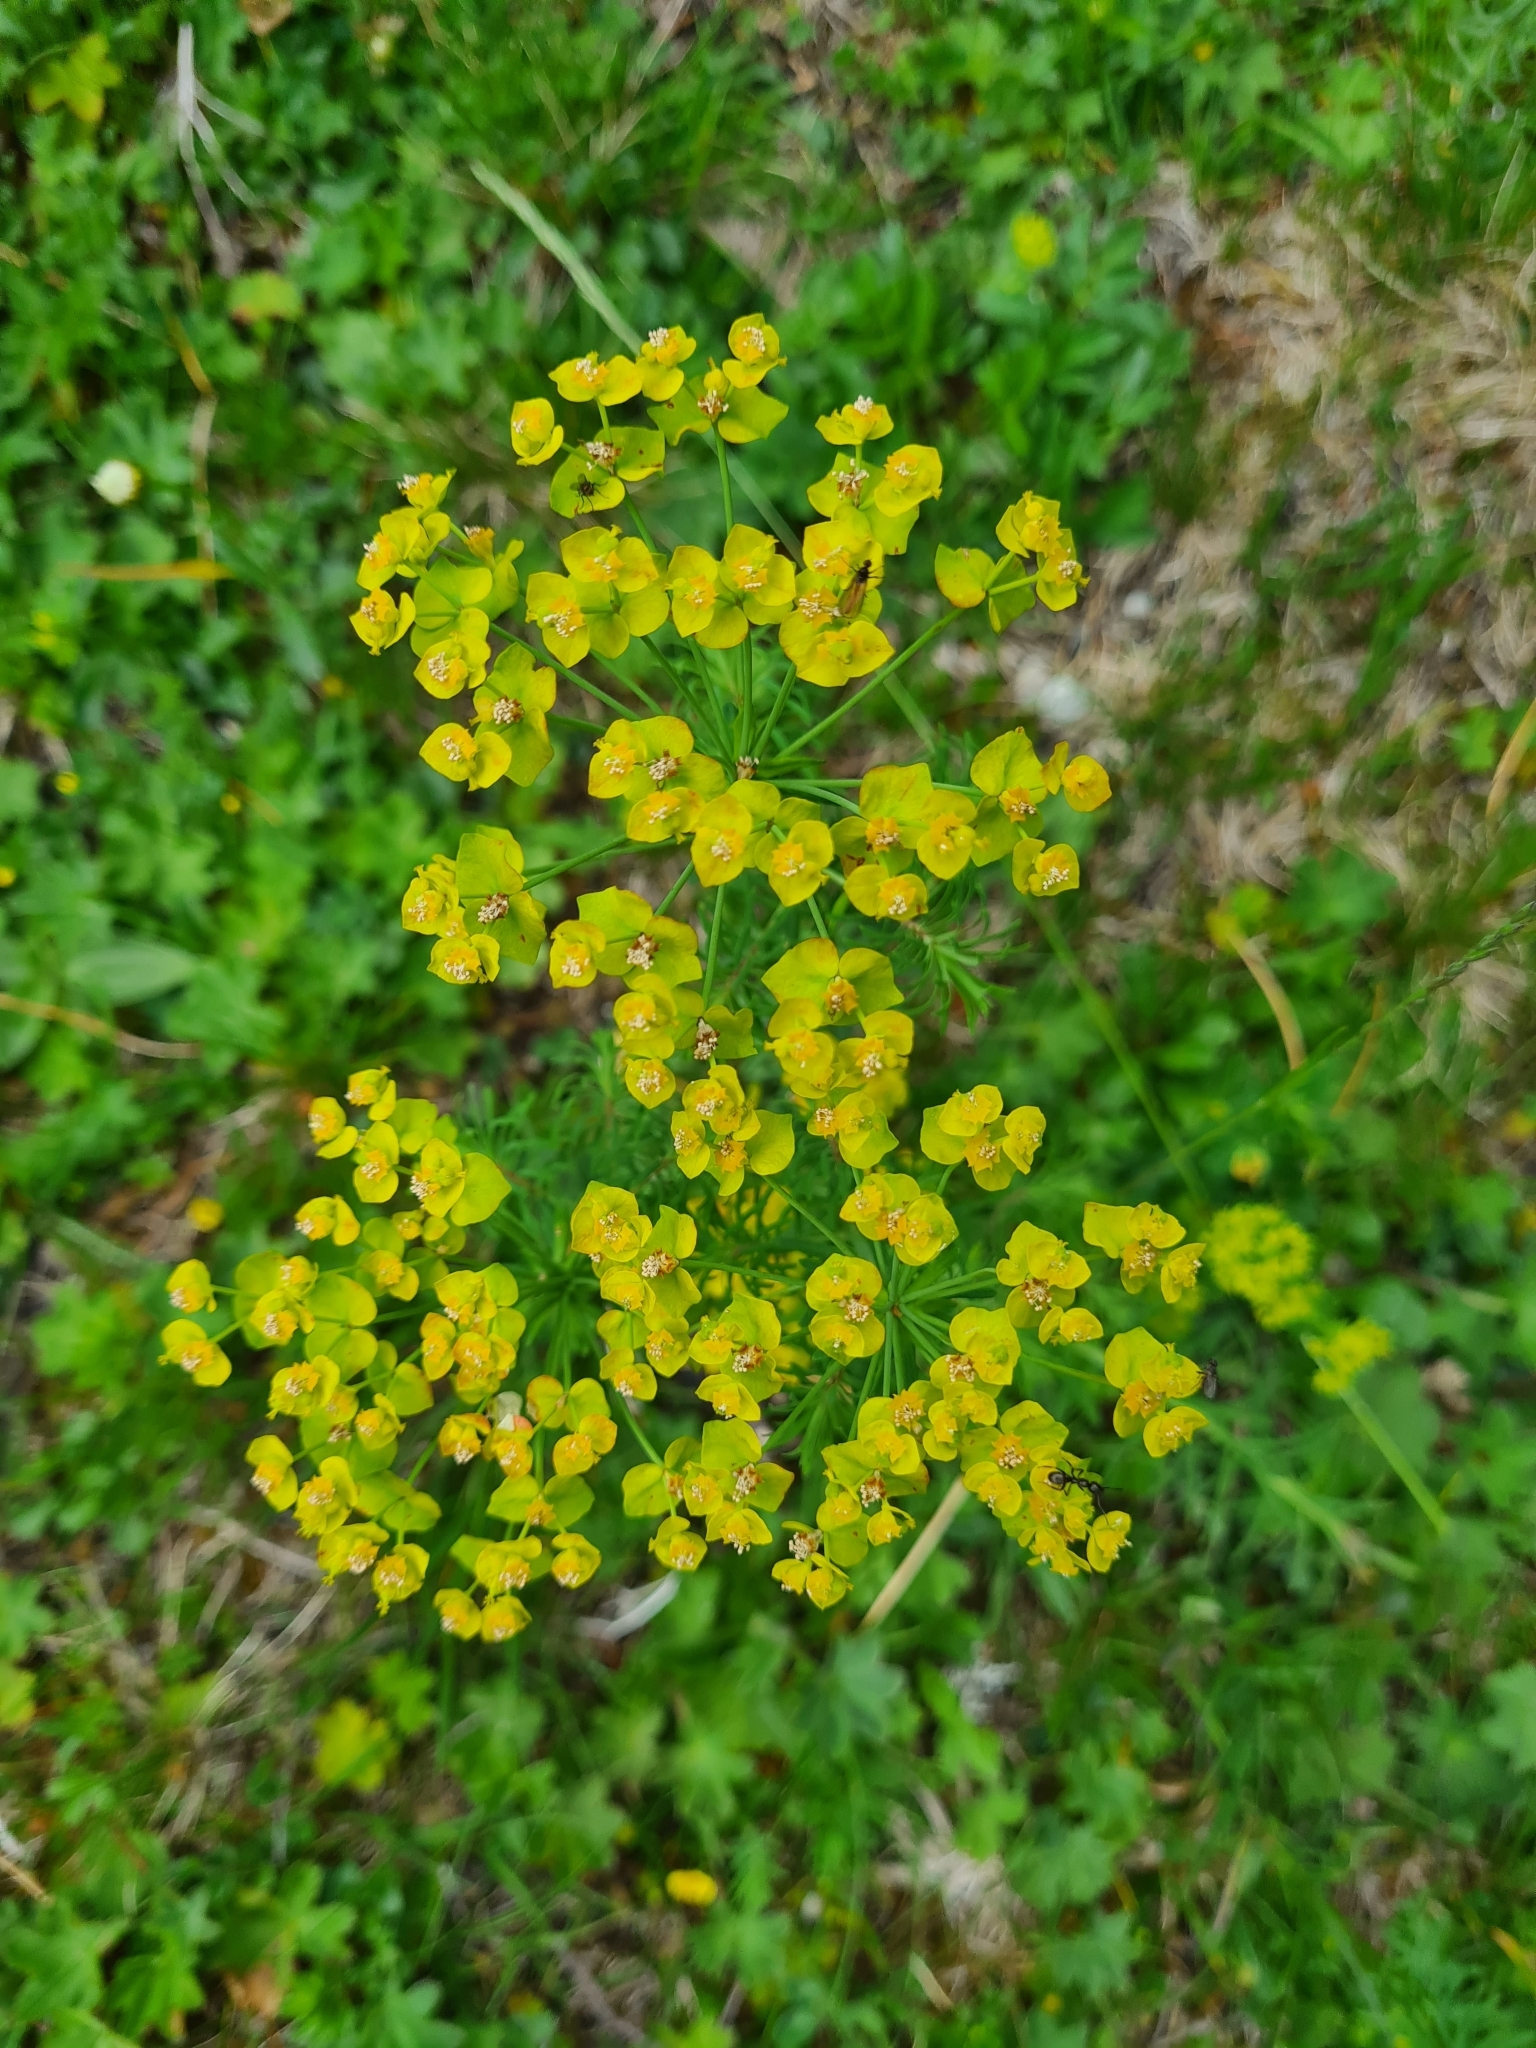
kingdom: Plantae
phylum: Tracheophyta
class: Magnoliopsida
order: Malpighiales
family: Euphorbiaceae
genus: Euphorbia
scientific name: Euphorbia cyparissias
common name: Cypress spurge
